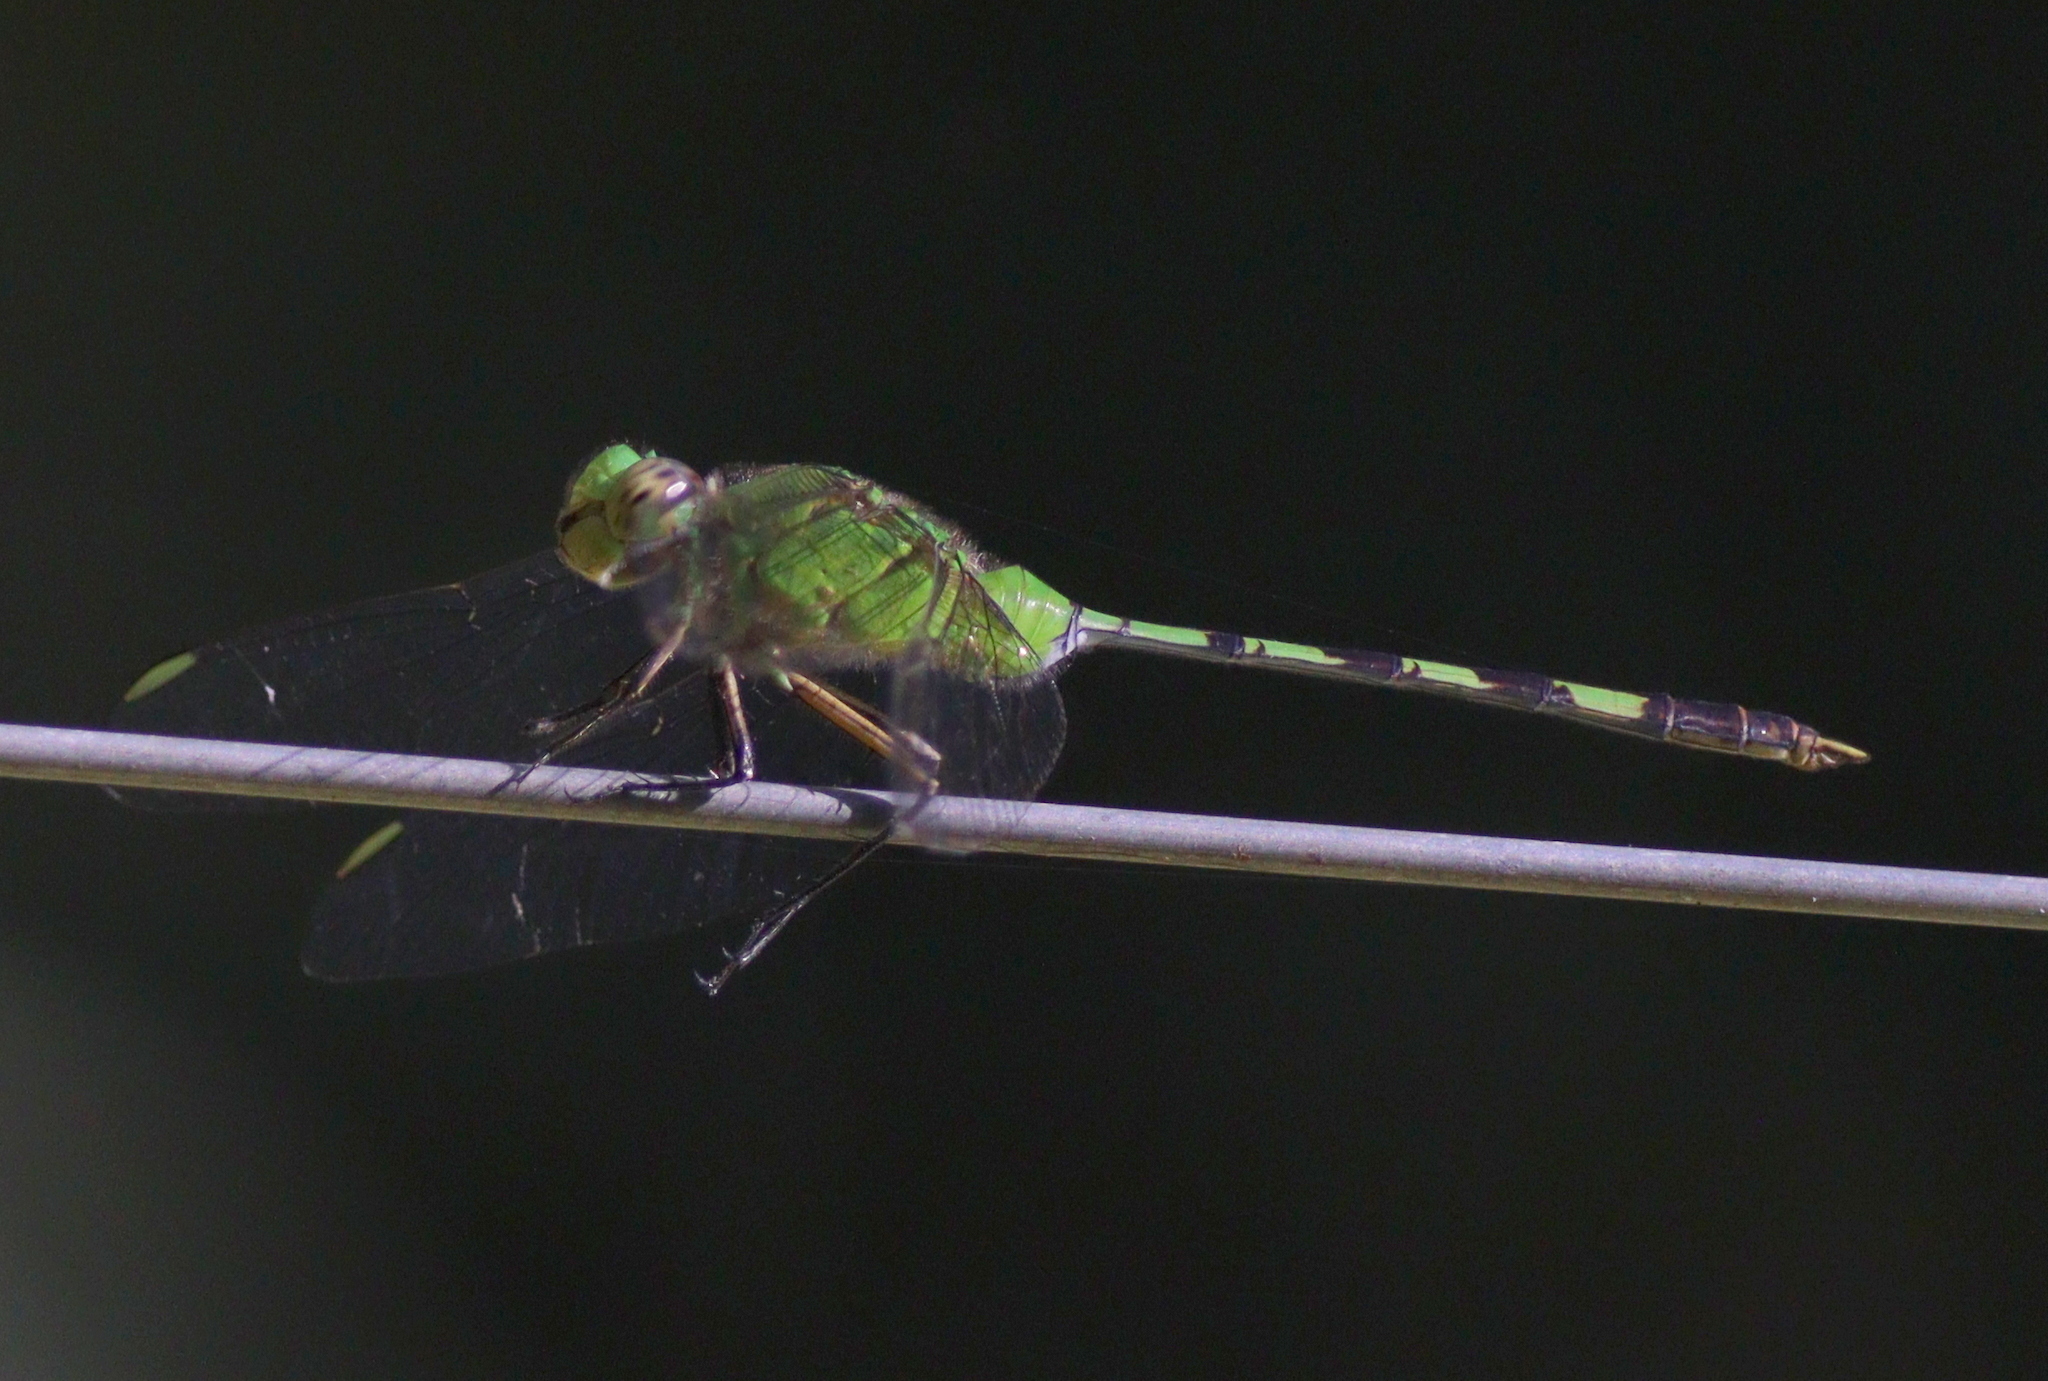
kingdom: Animalia
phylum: Arthropoda
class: Insecta
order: Odonata
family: Libellulidae
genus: Erythemis
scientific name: Erythemis vesiculosa
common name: Great pondhawk
